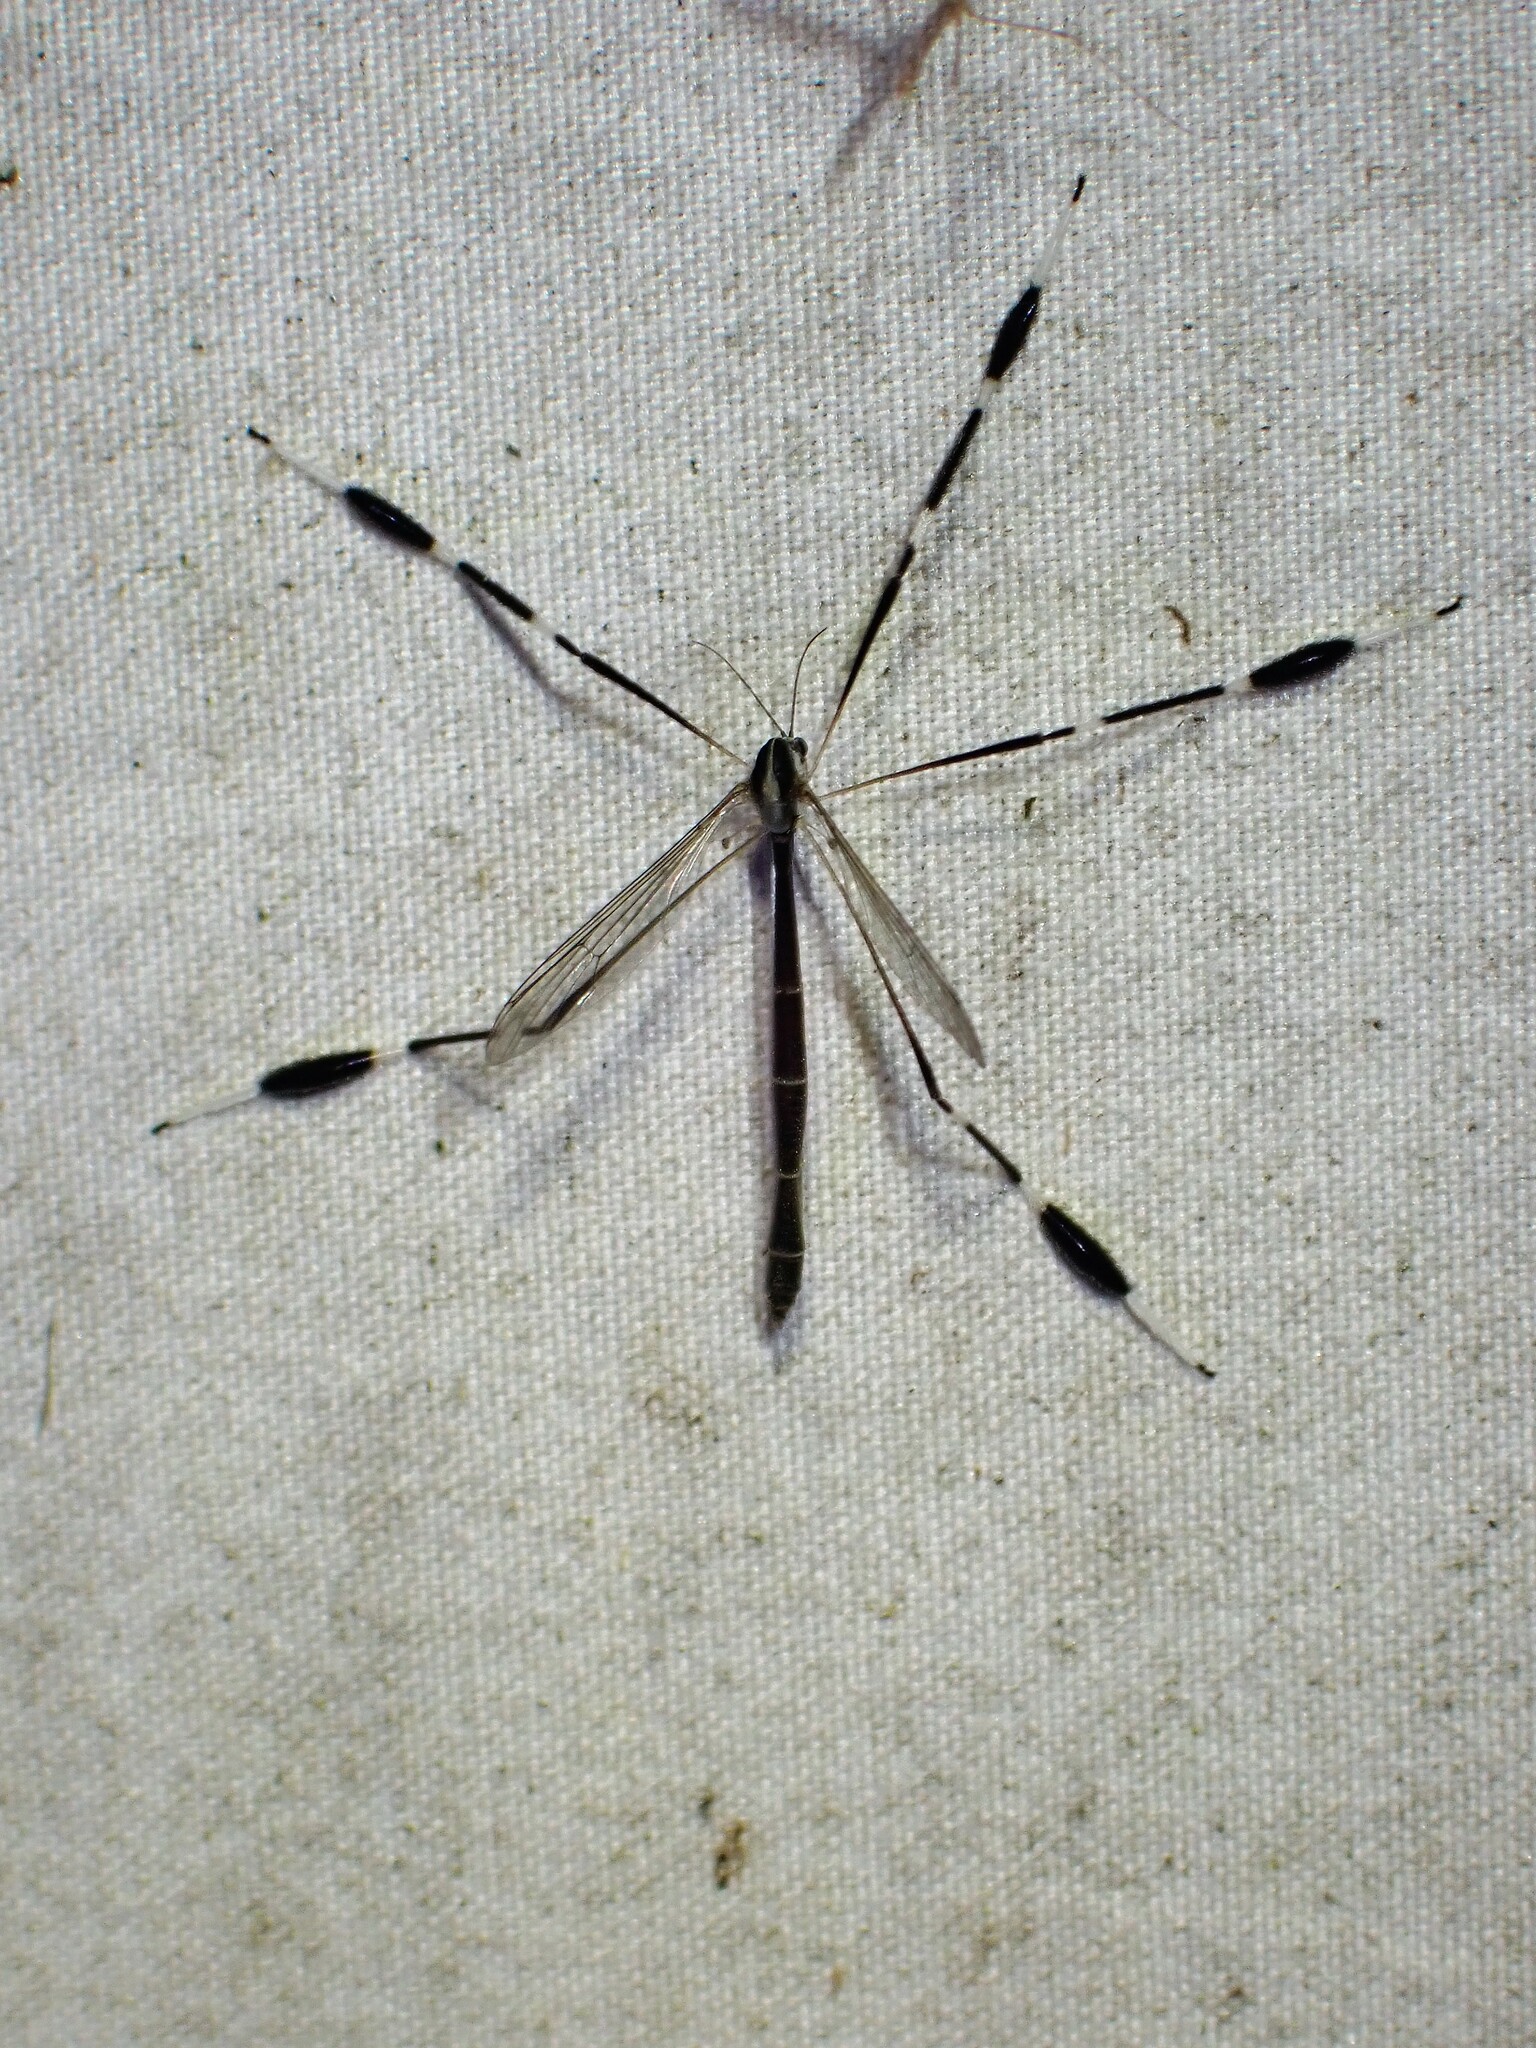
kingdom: Animalia
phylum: Arthropoda
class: Insecta
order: Diptera
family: Ptychopteridae
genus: Bittacomorpha
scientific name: Bittacomorpha clavipes
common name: Eastern phantom crane fly
